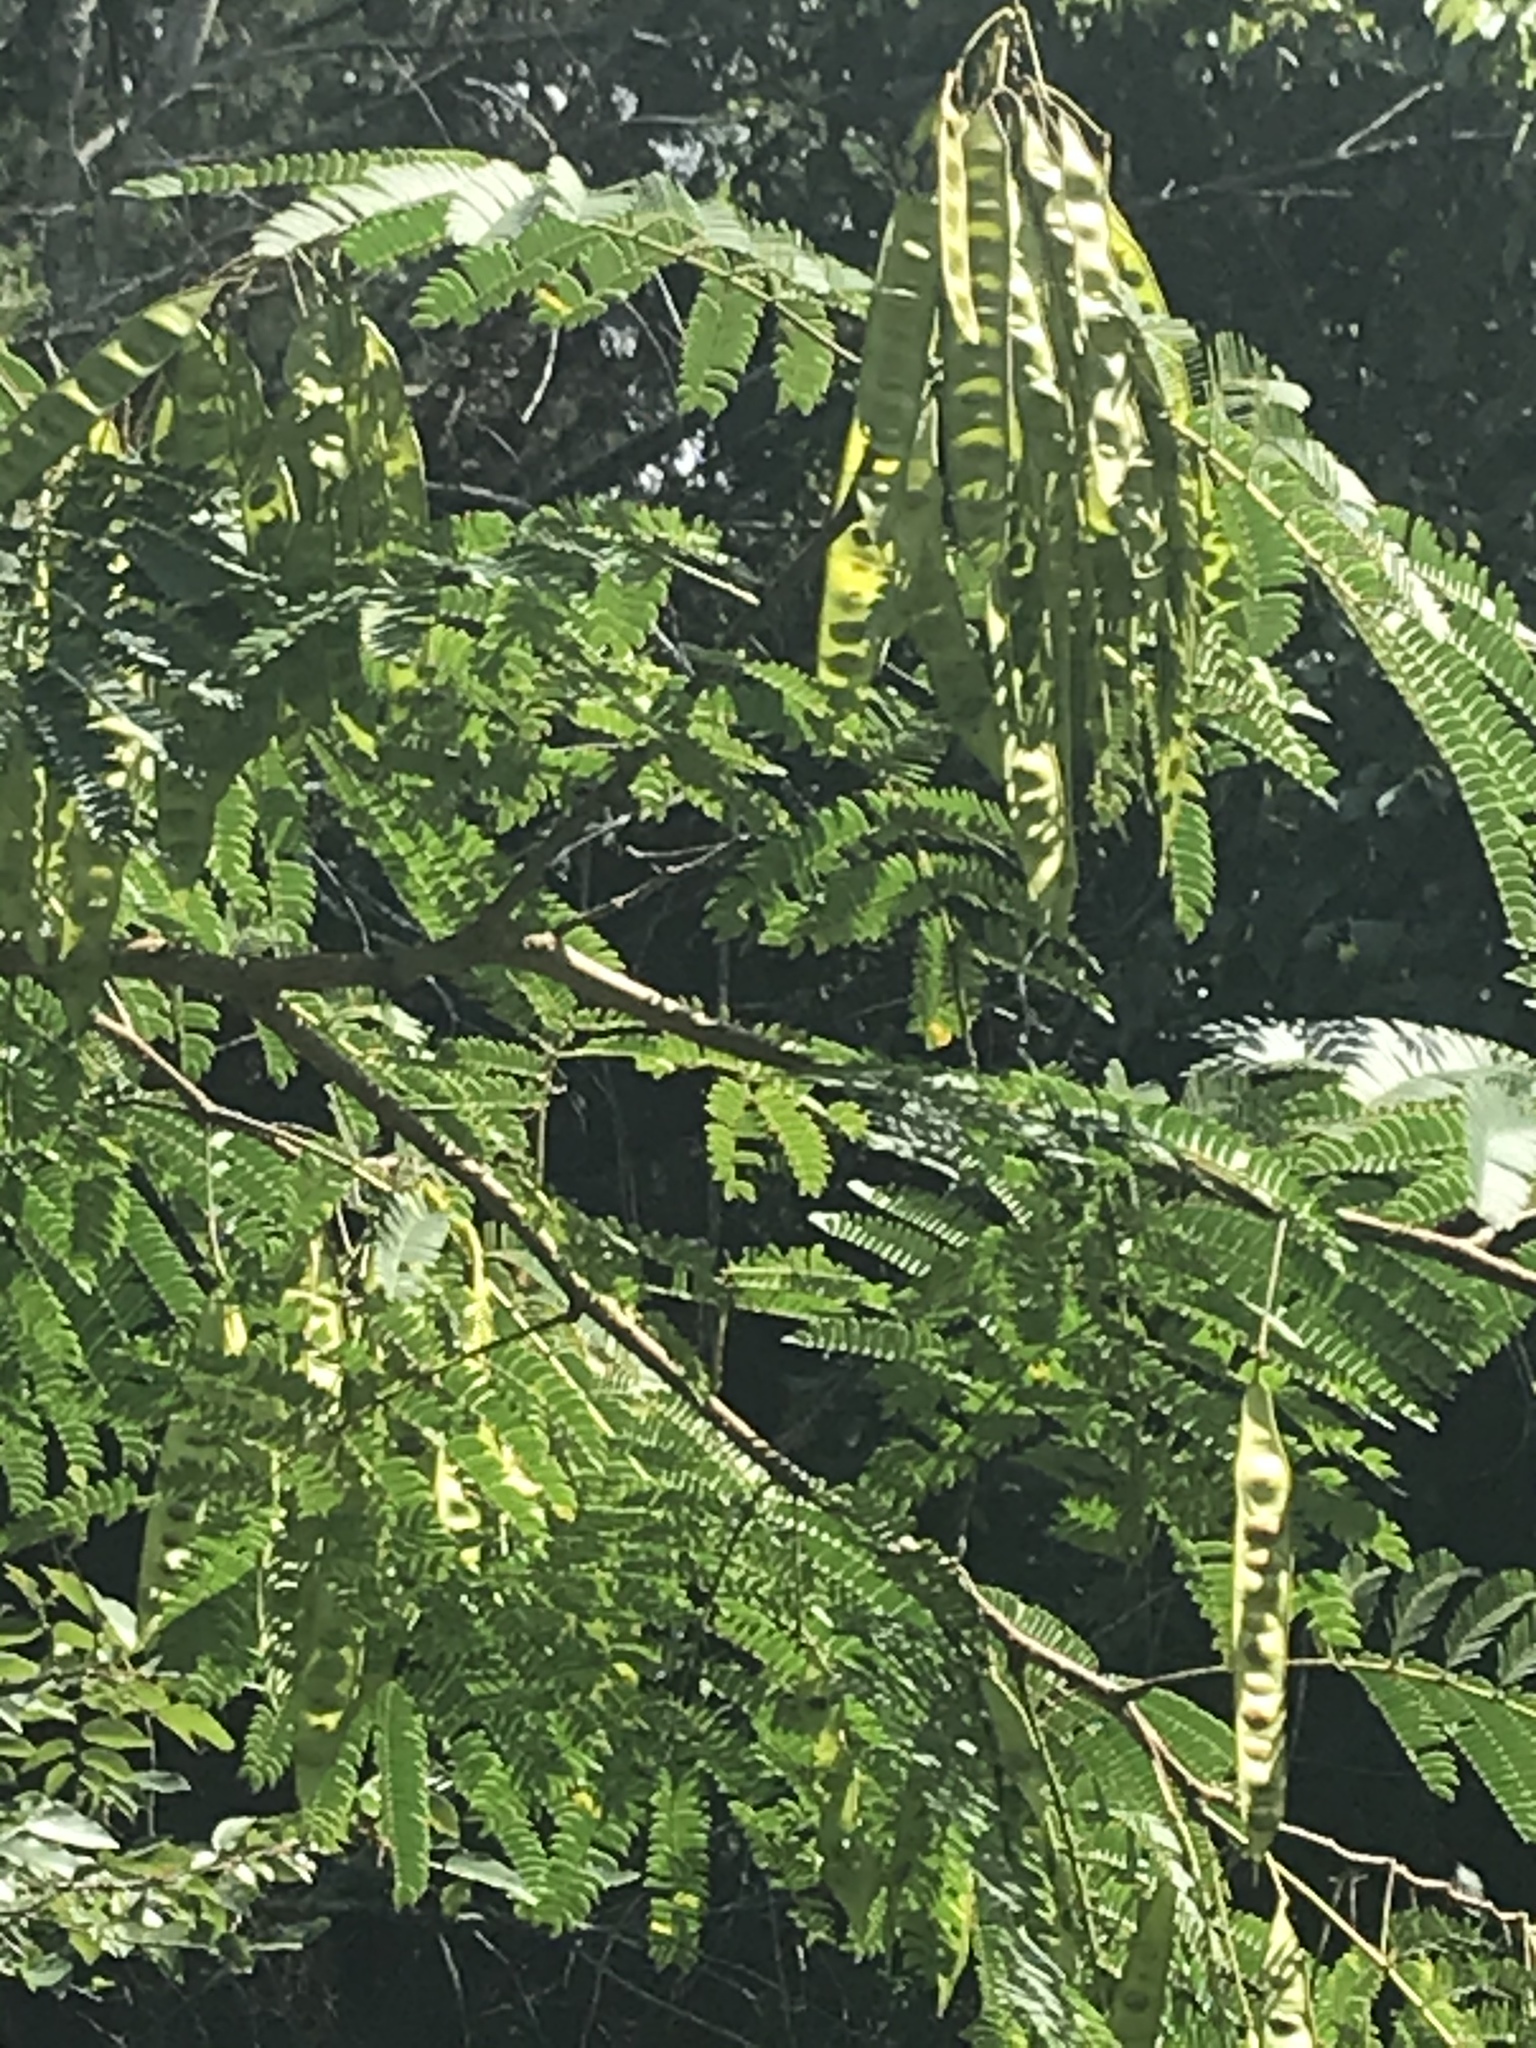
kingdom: Plantae
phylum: Tracheophyta
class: Magnoliopsida
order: Fabales
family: Fabaceae
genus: Albizia
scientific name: Albizia julibrissin
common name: Silktree
